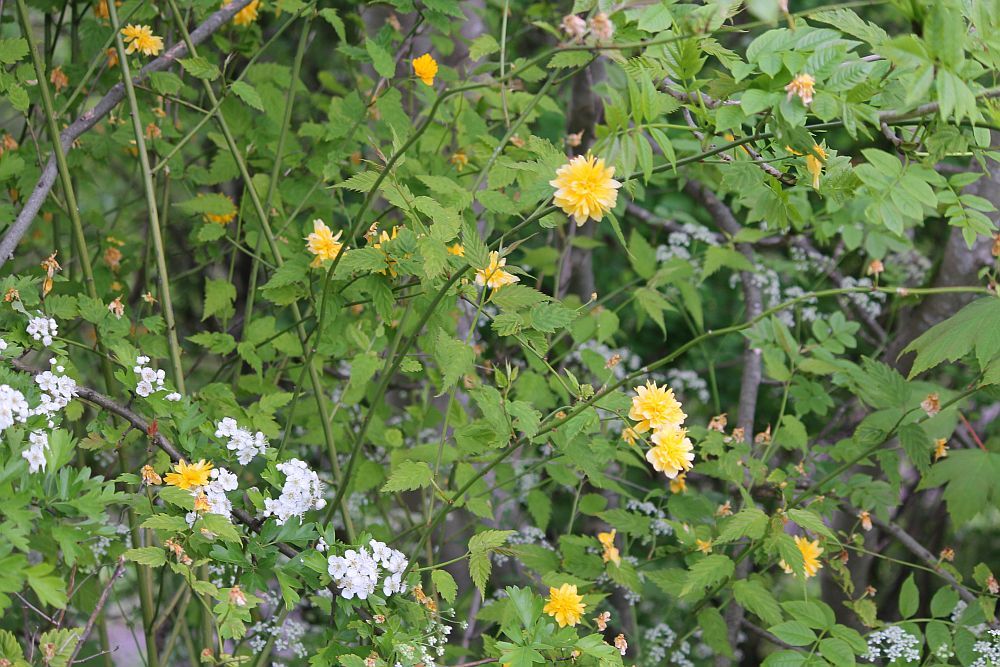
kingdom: Plantae
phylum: Tracheophyta
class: Magnoliopsida
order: Rosales
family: Rosaceae
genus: Kerria
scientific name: Kerria japonica
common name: Japanese kerria
